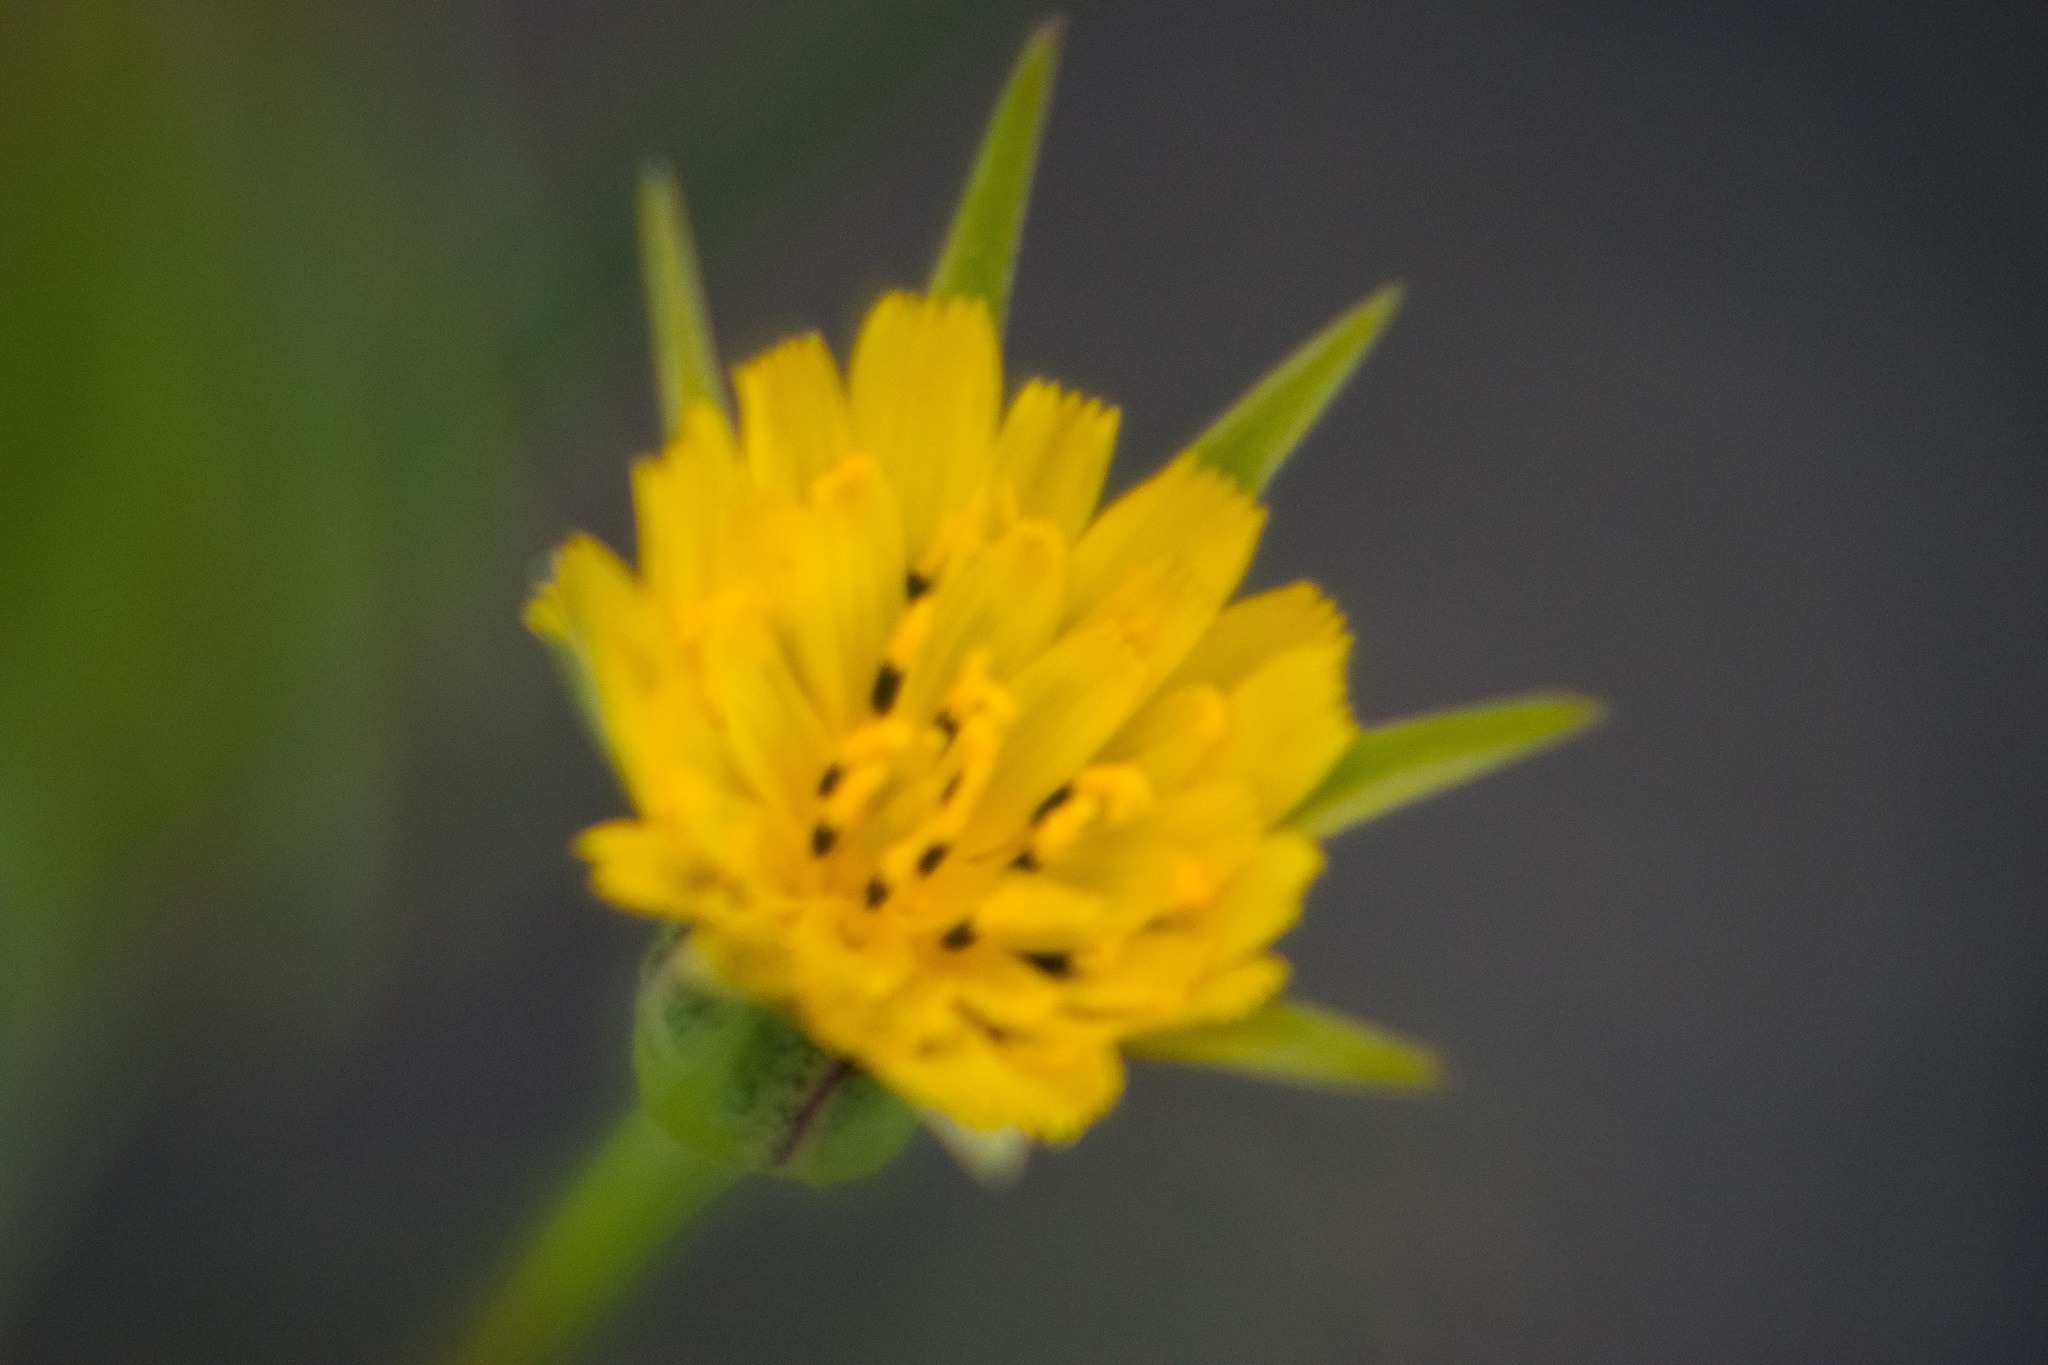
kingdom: Plantae
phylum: Tracheophyta
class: Magnoliopsida
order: Asterales
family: Asteraceae
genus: Tragopogon
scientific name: Tragopogon minor
